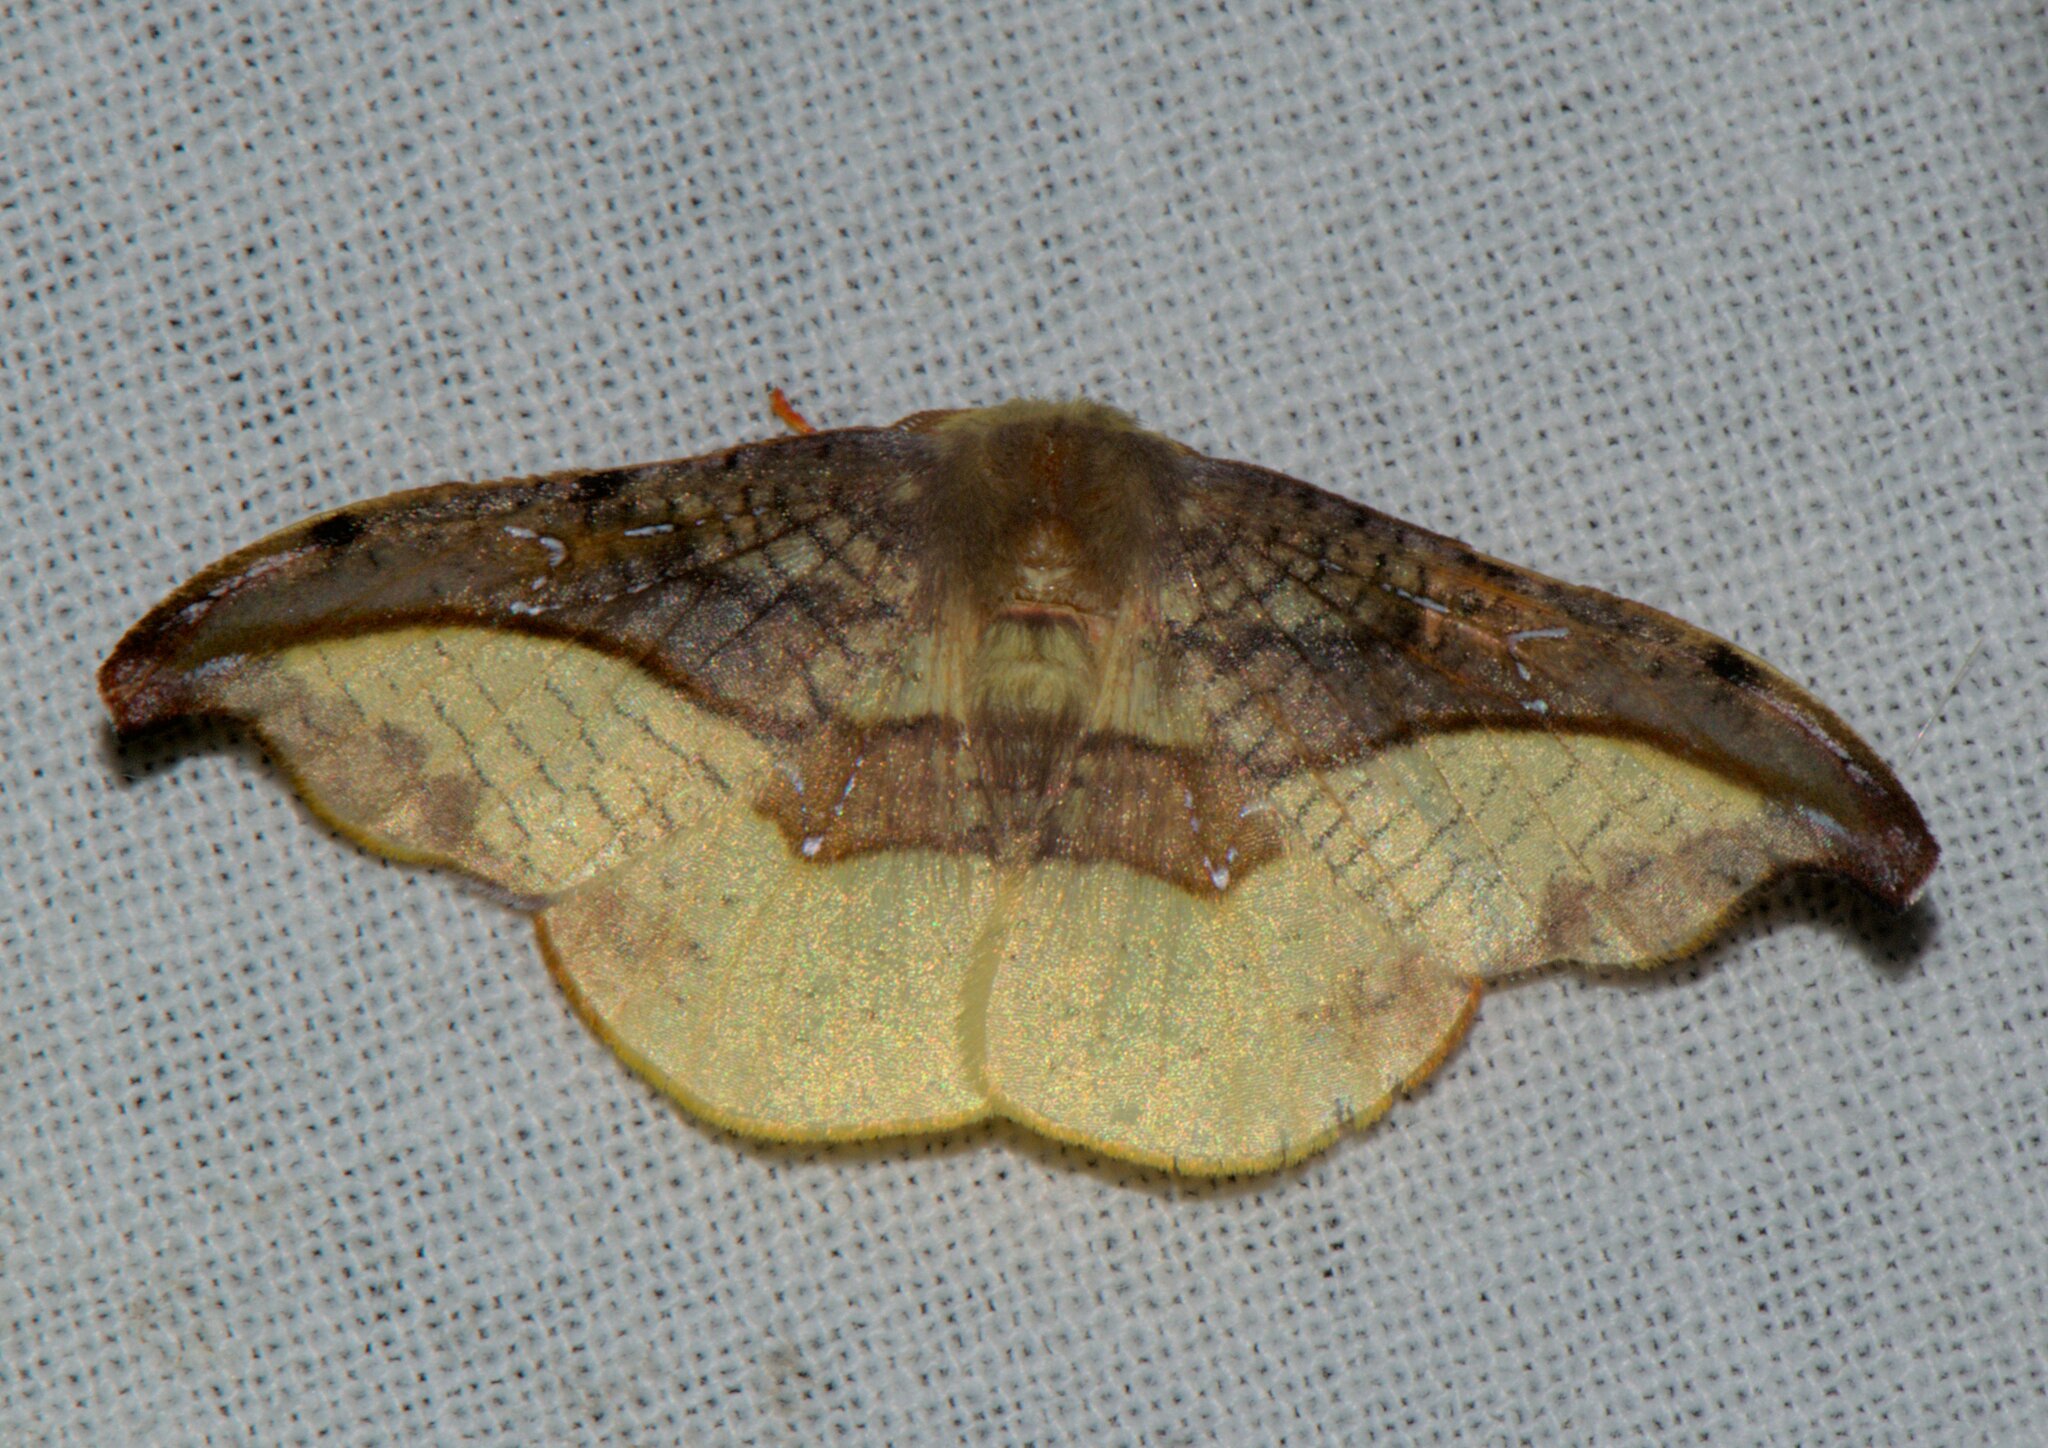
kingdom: Animalia
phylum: Arthropoda
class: Insecta
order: Lepidoptera
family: Drepanidae
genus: Oreta
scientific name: Oreta vatama
